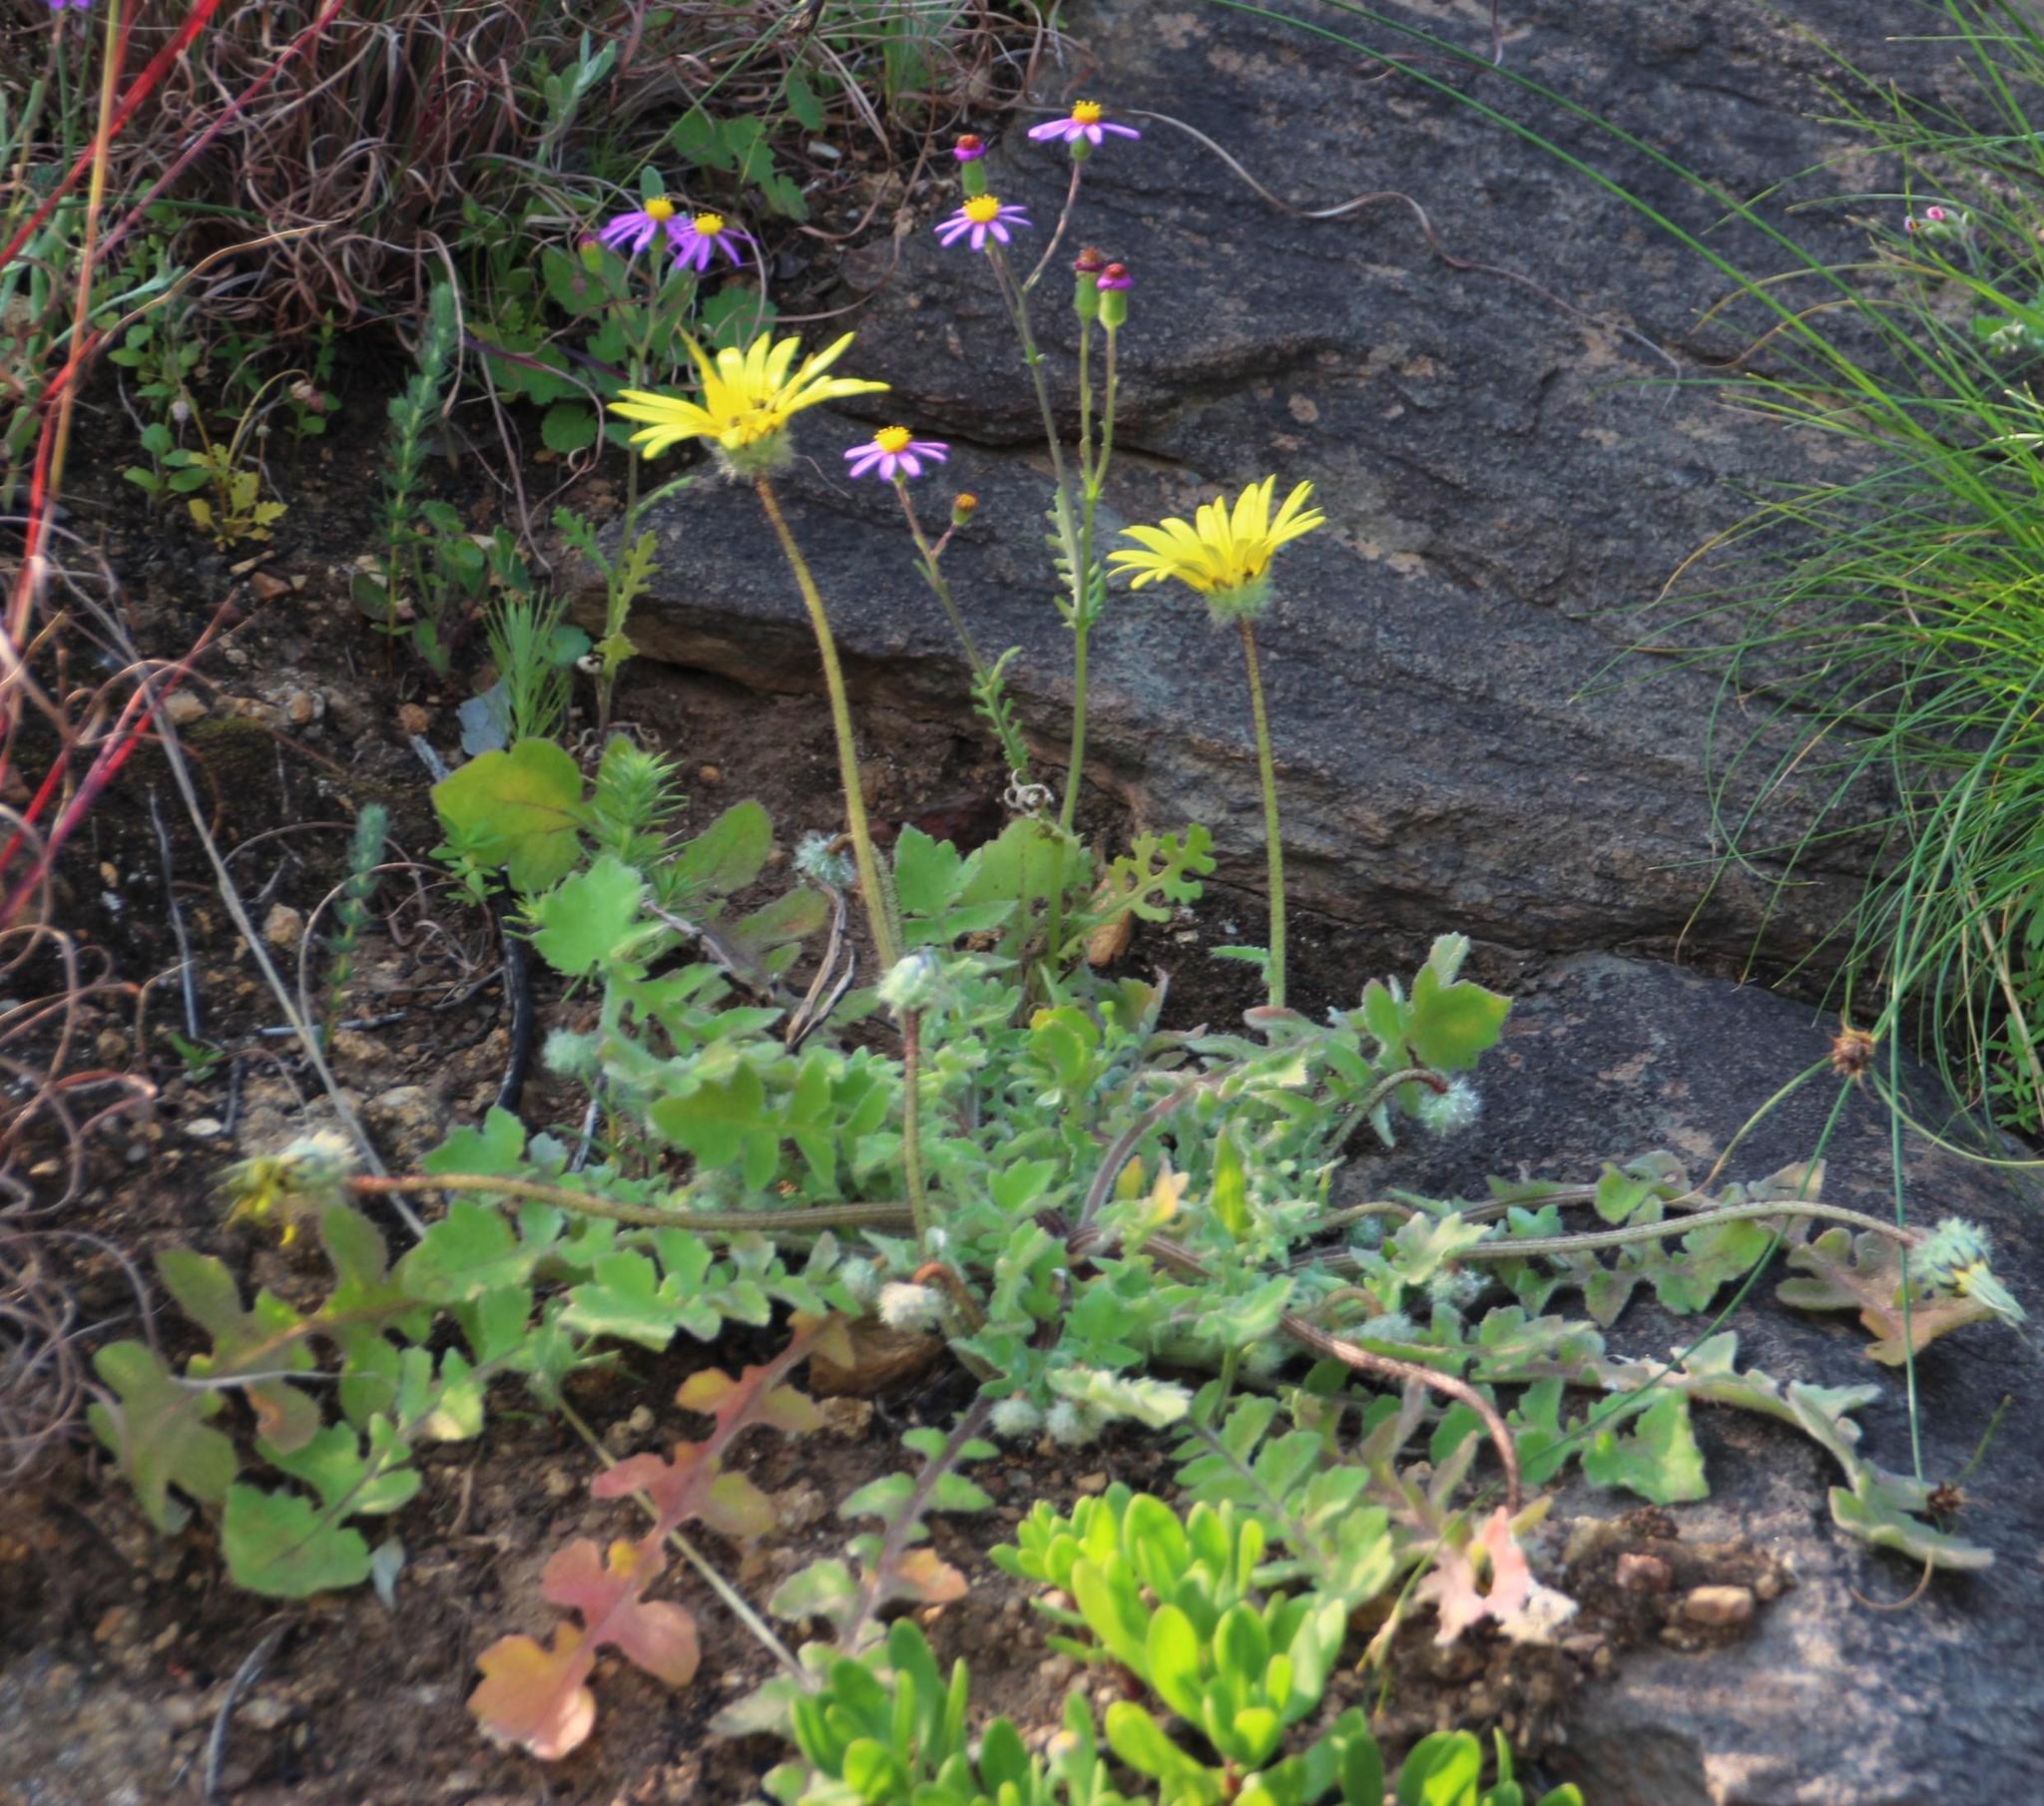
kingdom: Plantae
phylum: Tracheophyta
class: Magnoliopsida
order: Asterales
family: Asteraceae
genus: Arctotheca
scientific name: Arctotheca calendula
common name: Capeweed
